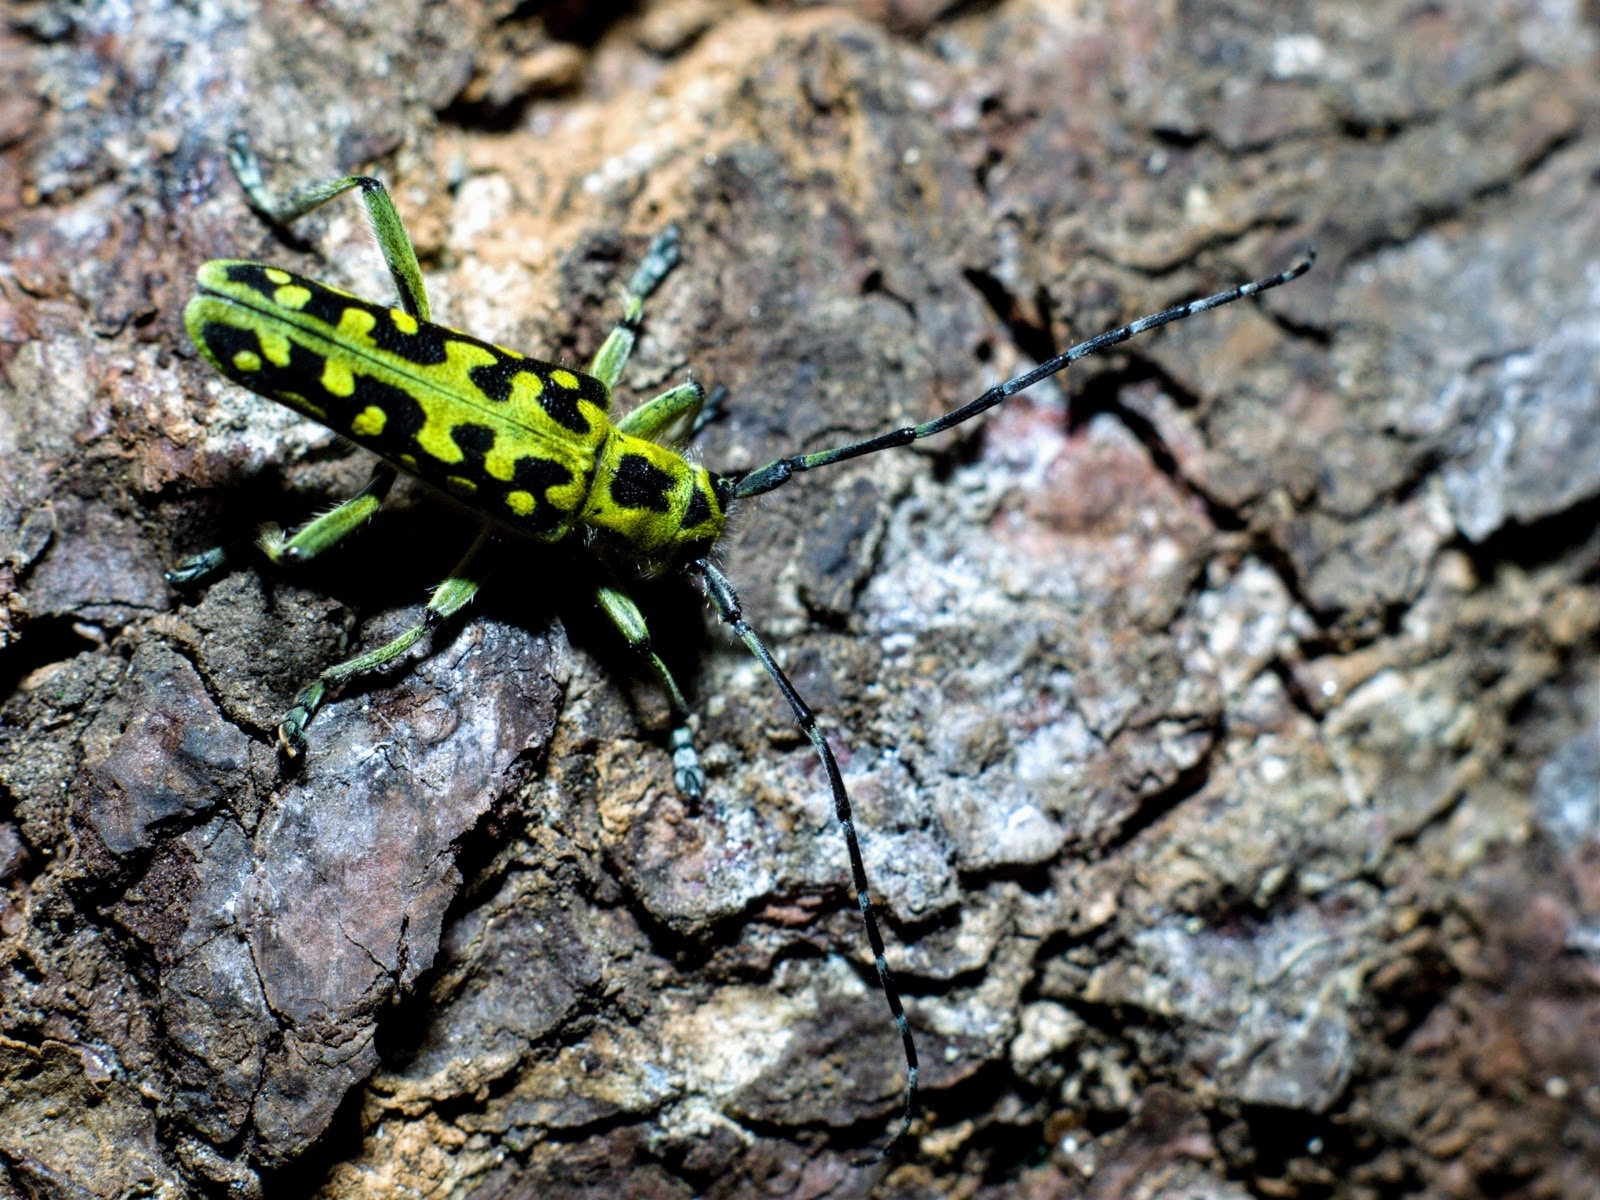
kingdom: Animalia
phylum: Arthropoda
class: Insecta
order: Coleoptera
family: Cerambycidae
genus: Saperda
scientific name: Saperda scalaris
